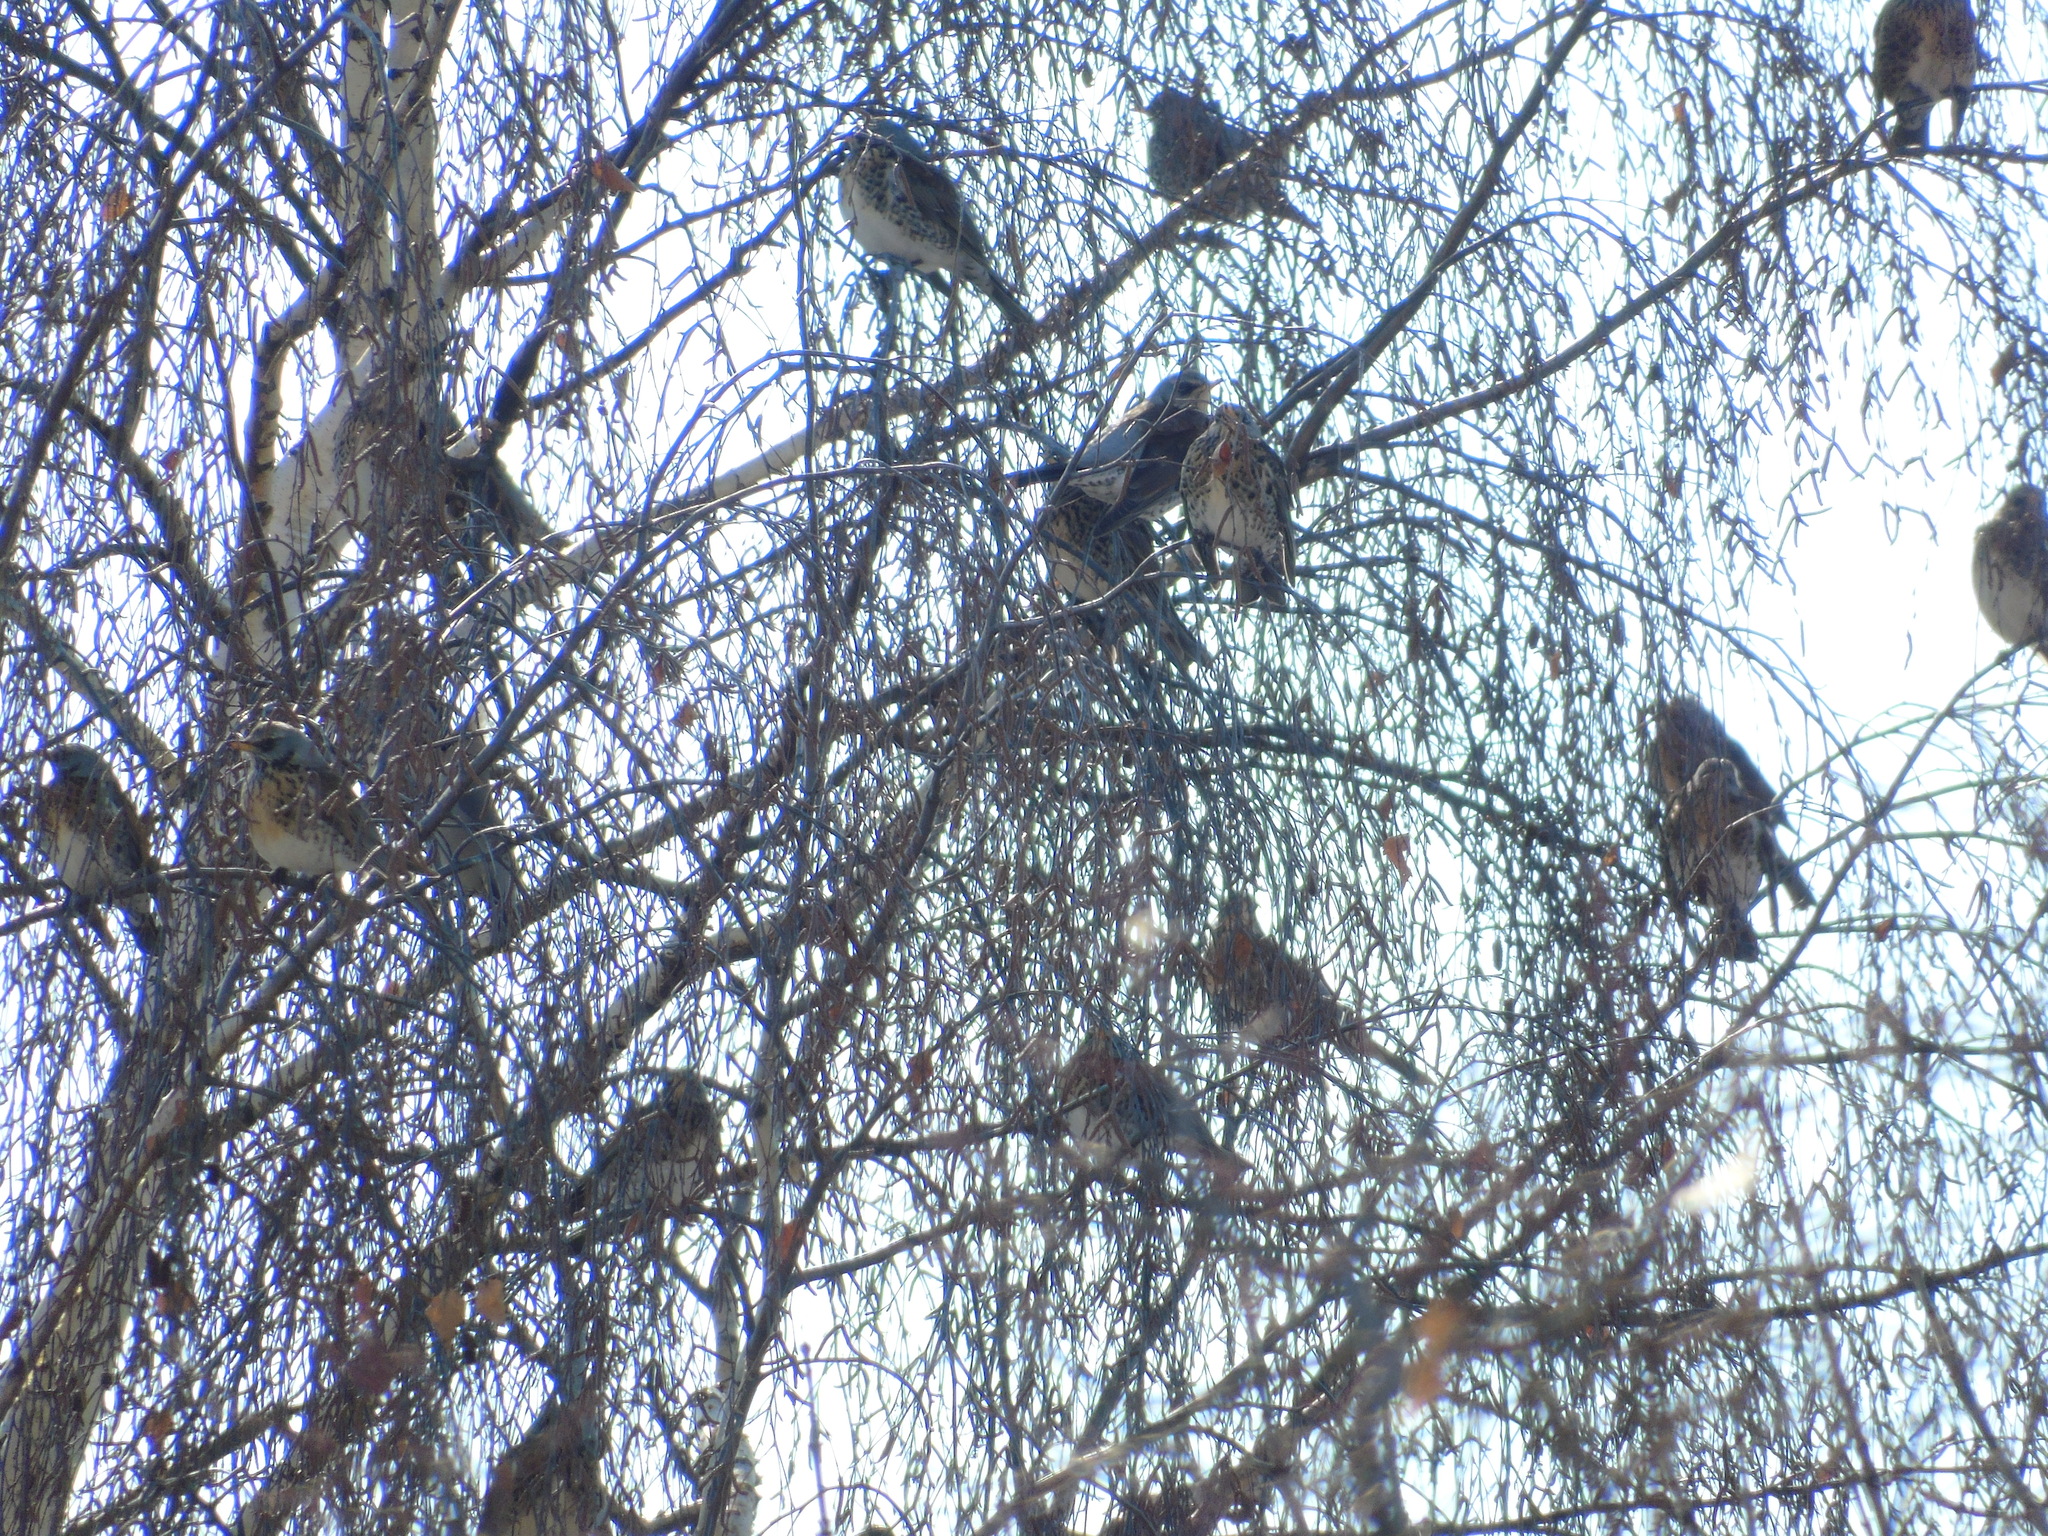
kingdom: Animalia
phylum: Chordata
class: Aves
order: Passeriformes
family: Turdidae
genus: Turdus
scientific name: Turdus pilaris
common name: Fieldfare
